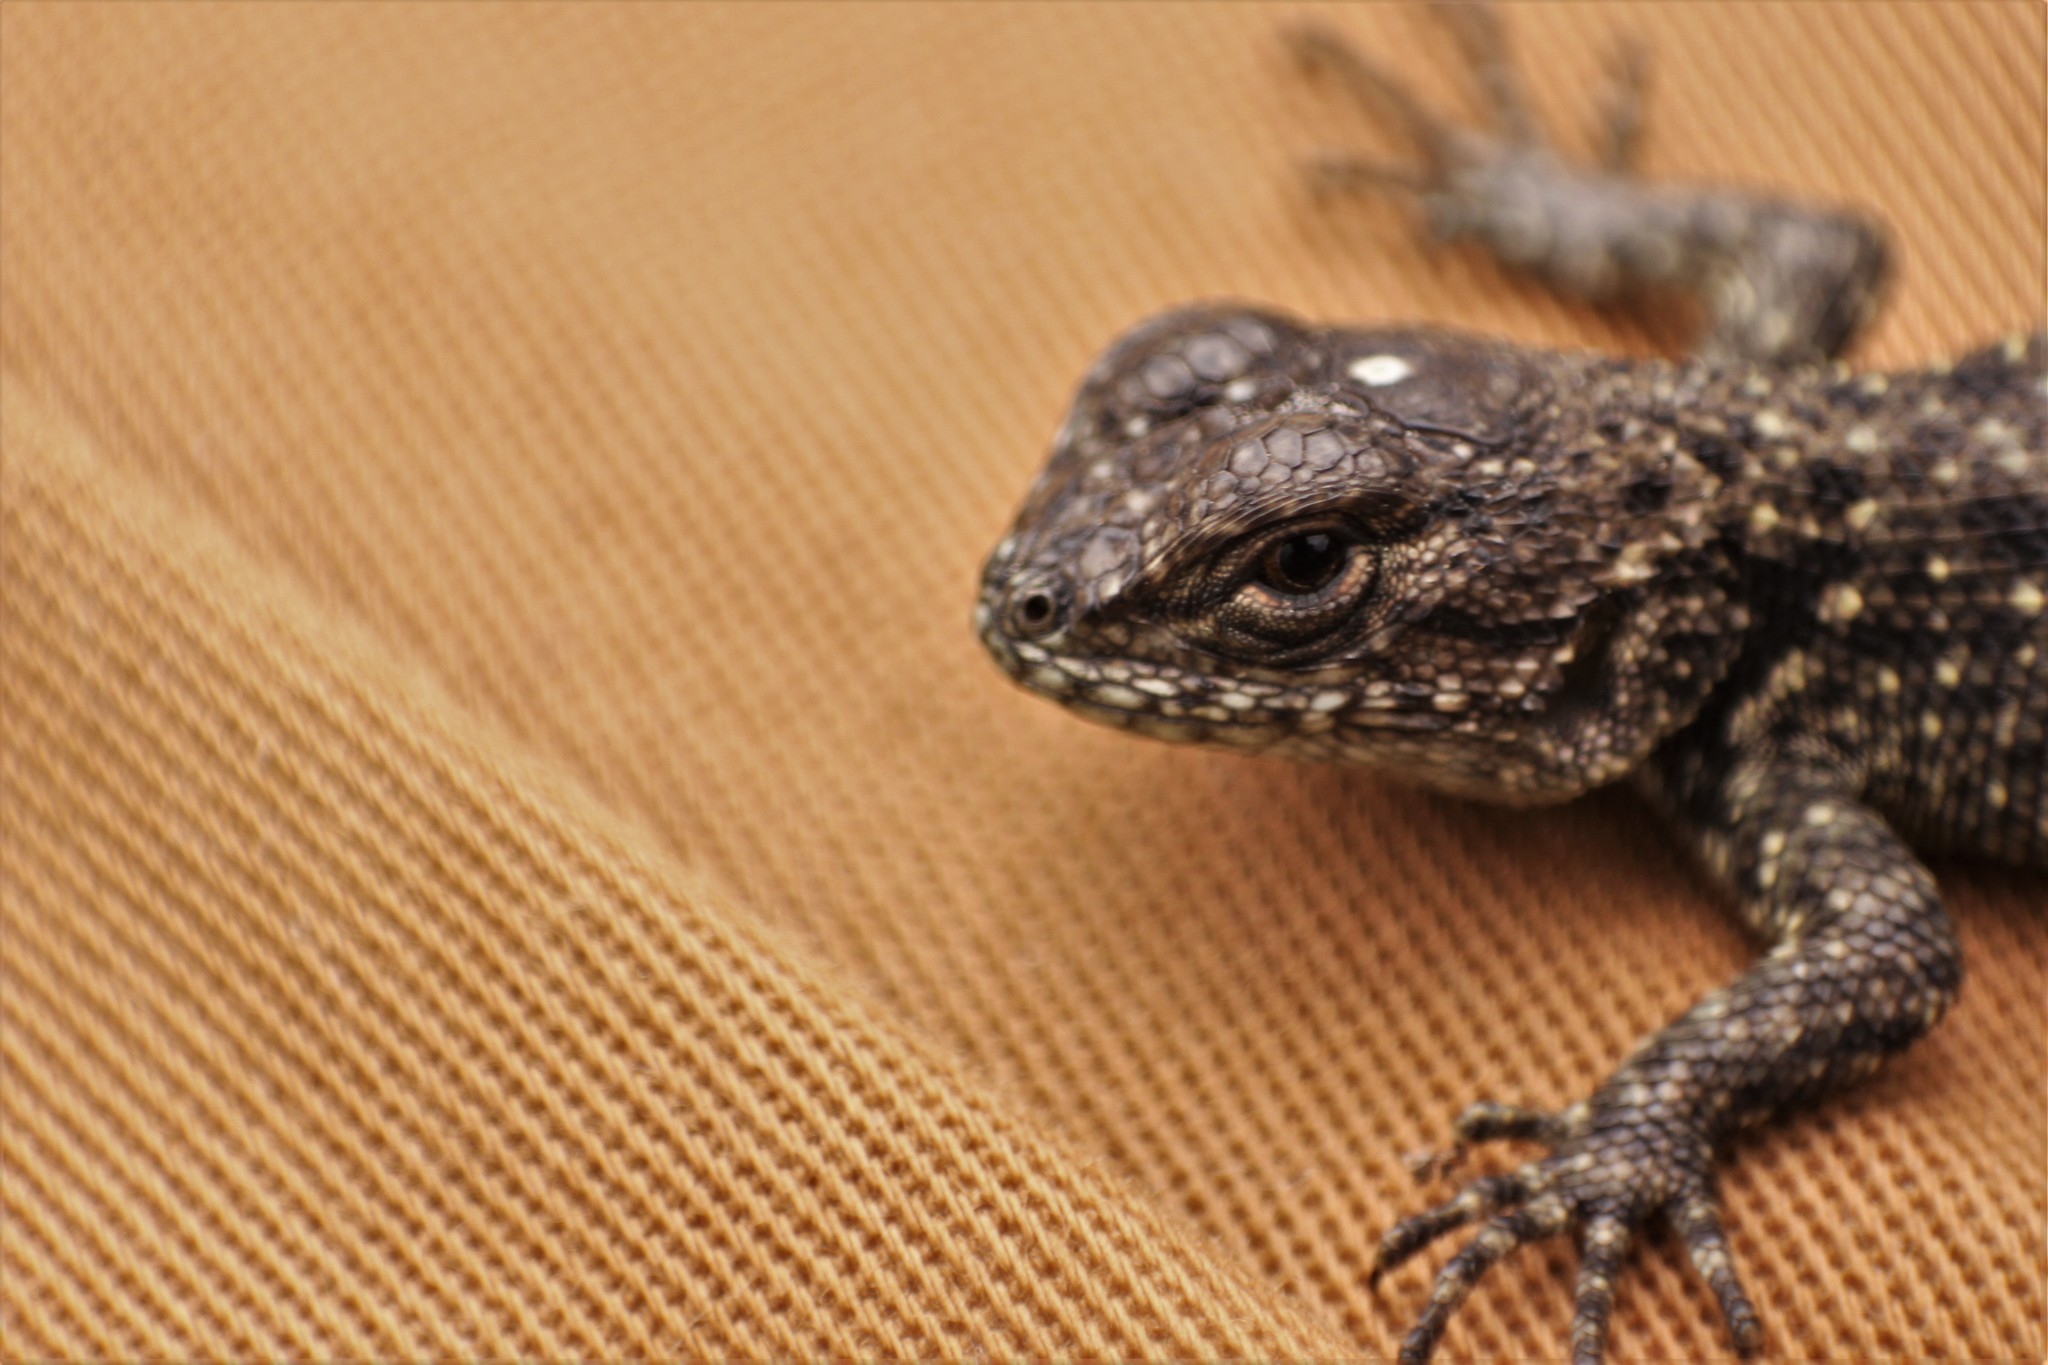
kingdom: Animalia
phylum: Chordata
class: Squamata
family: Phrynosomatidae
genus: Sceloporus
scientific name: Sceloporus taeniocnemis
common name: Guatemalan emerald spiny lizard
